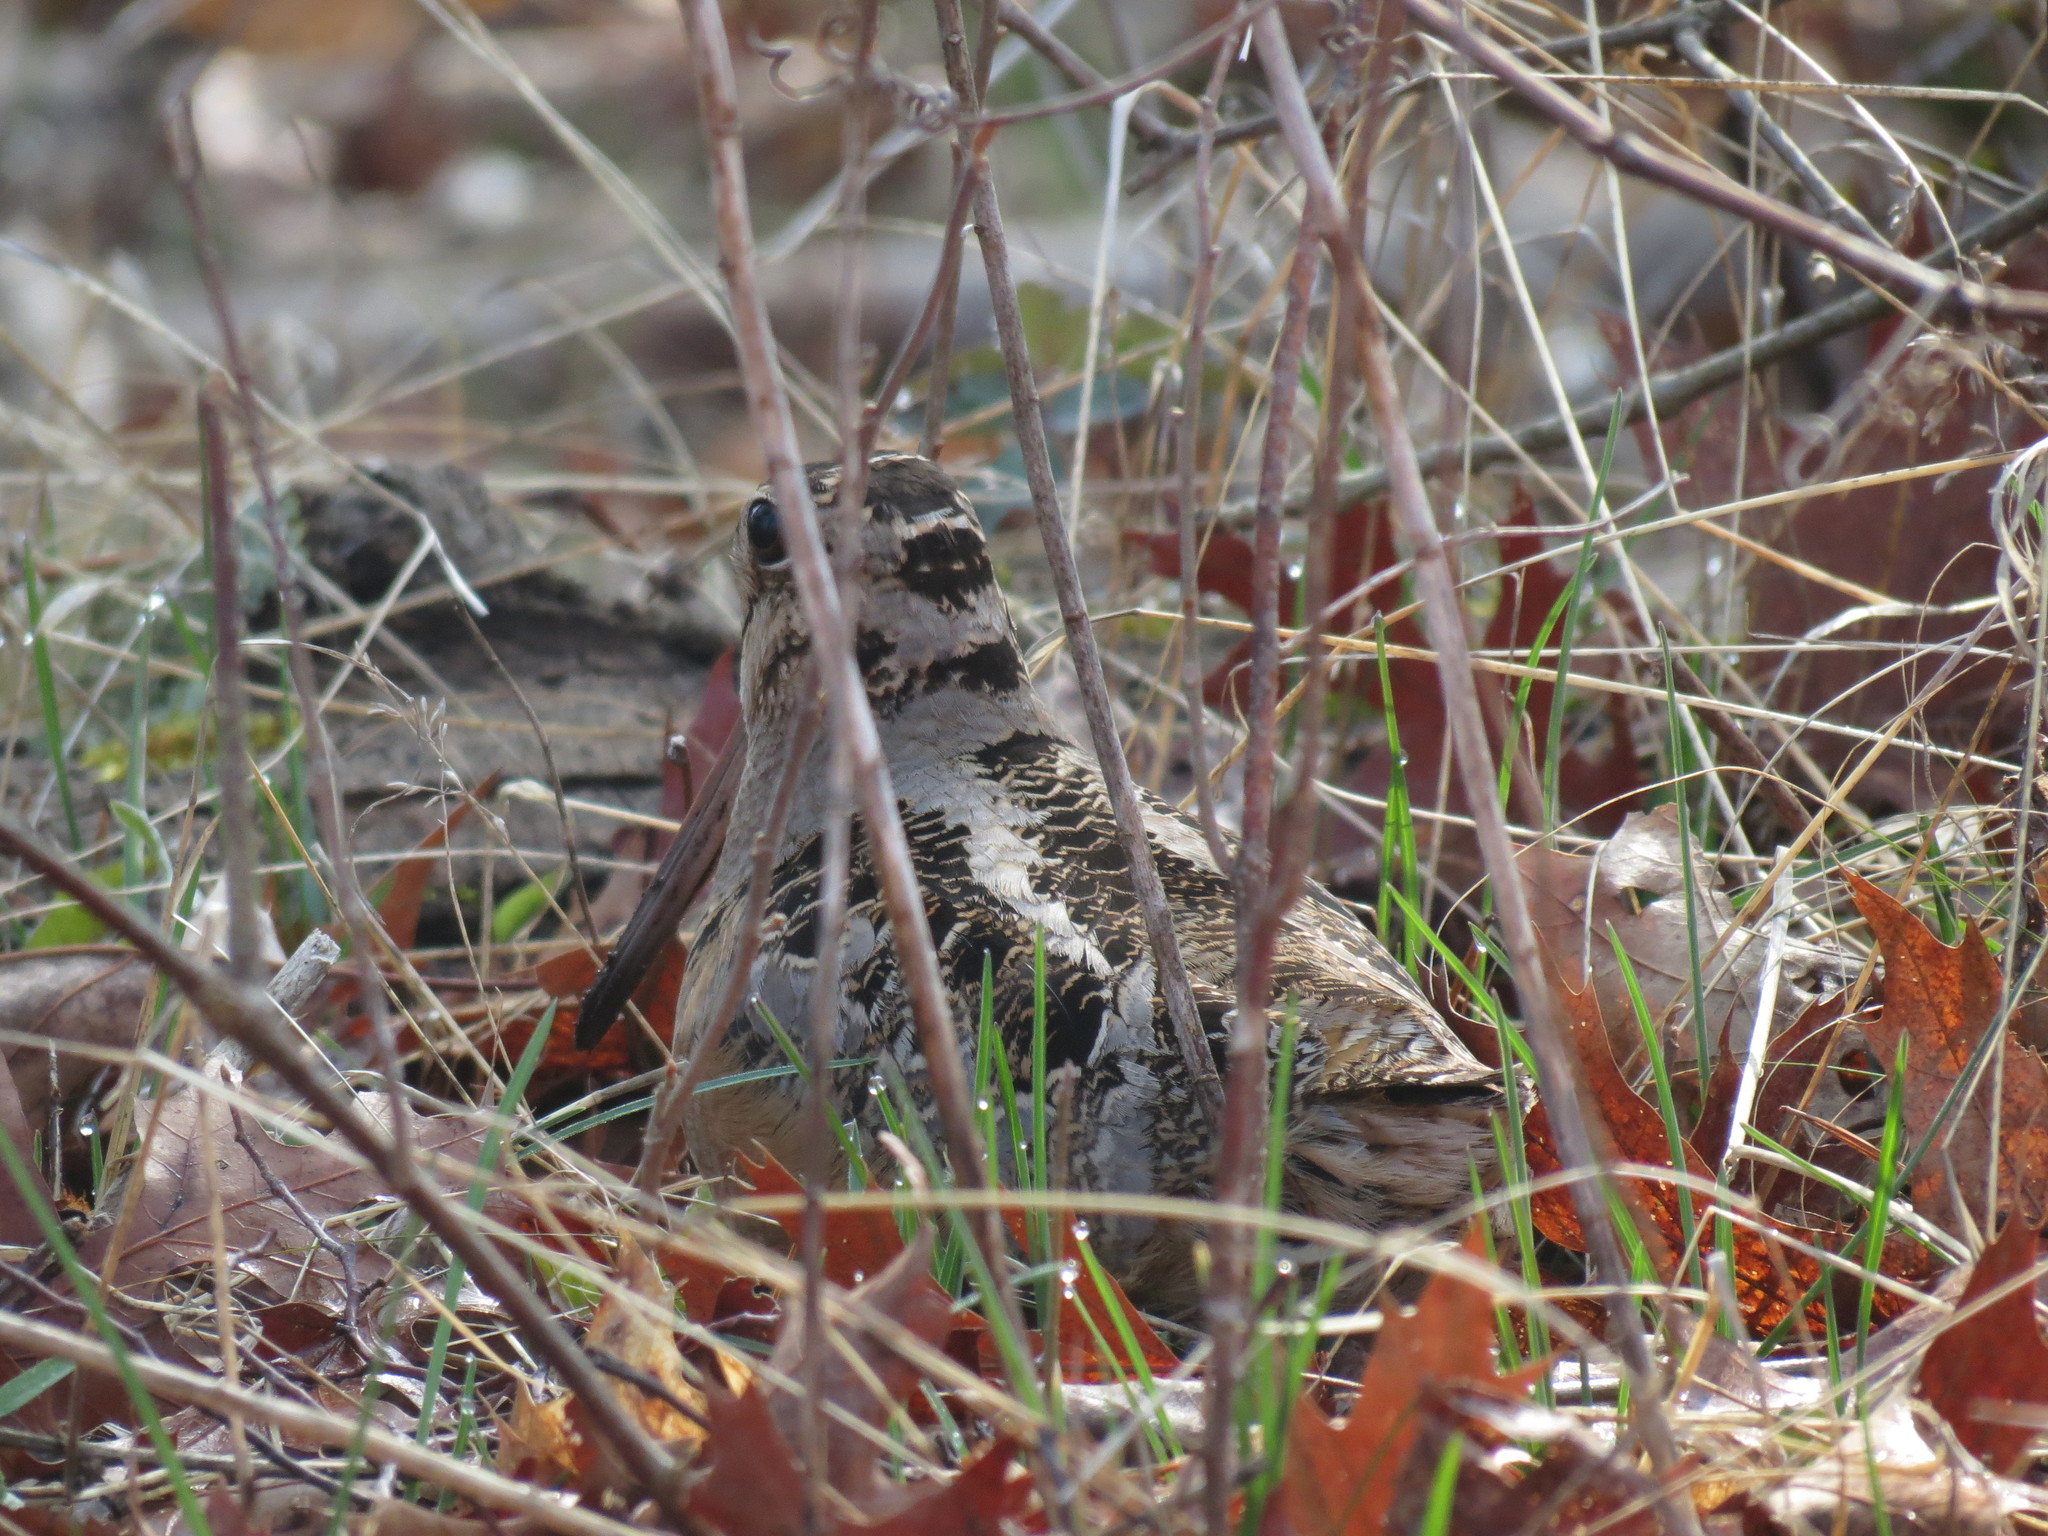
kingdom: Animalia
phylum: Chordata
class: Aves
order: Charadriiformes
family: Scolopacidae
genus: Scolopax
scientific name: Scolopax minor
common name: American woodcock
